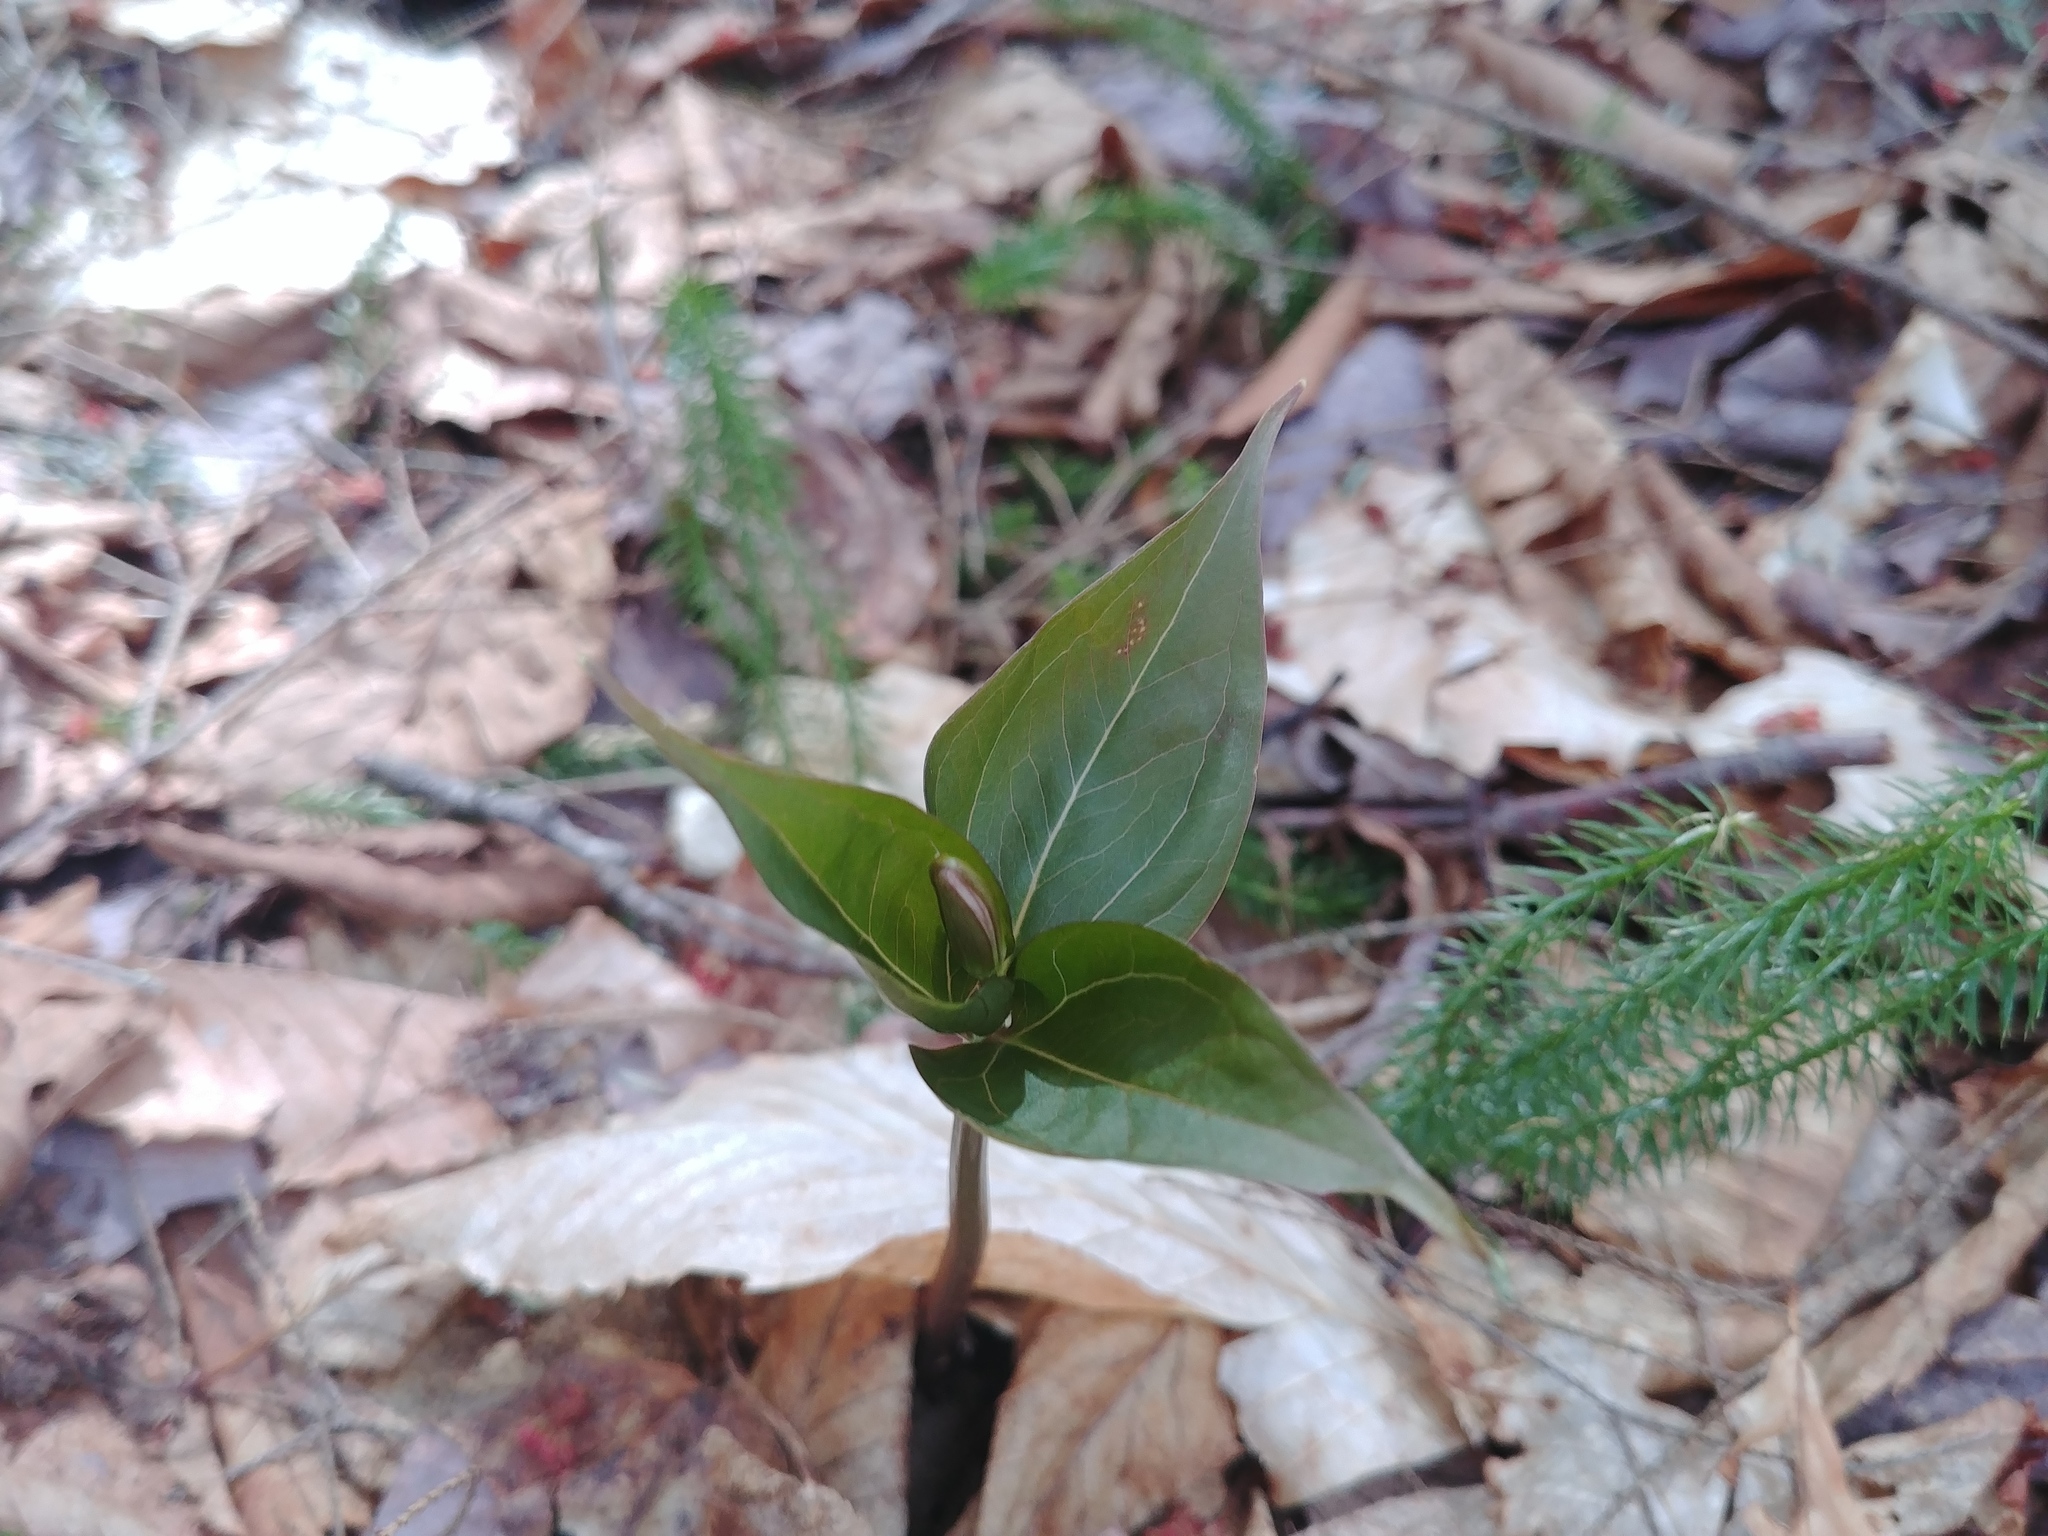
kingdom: Plantae
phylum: Tracheophyta
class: Liliopsida
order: Liliales
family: Melanthiaceae
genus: Trillium
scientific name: Trillium undulatum
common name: Paint trillium
